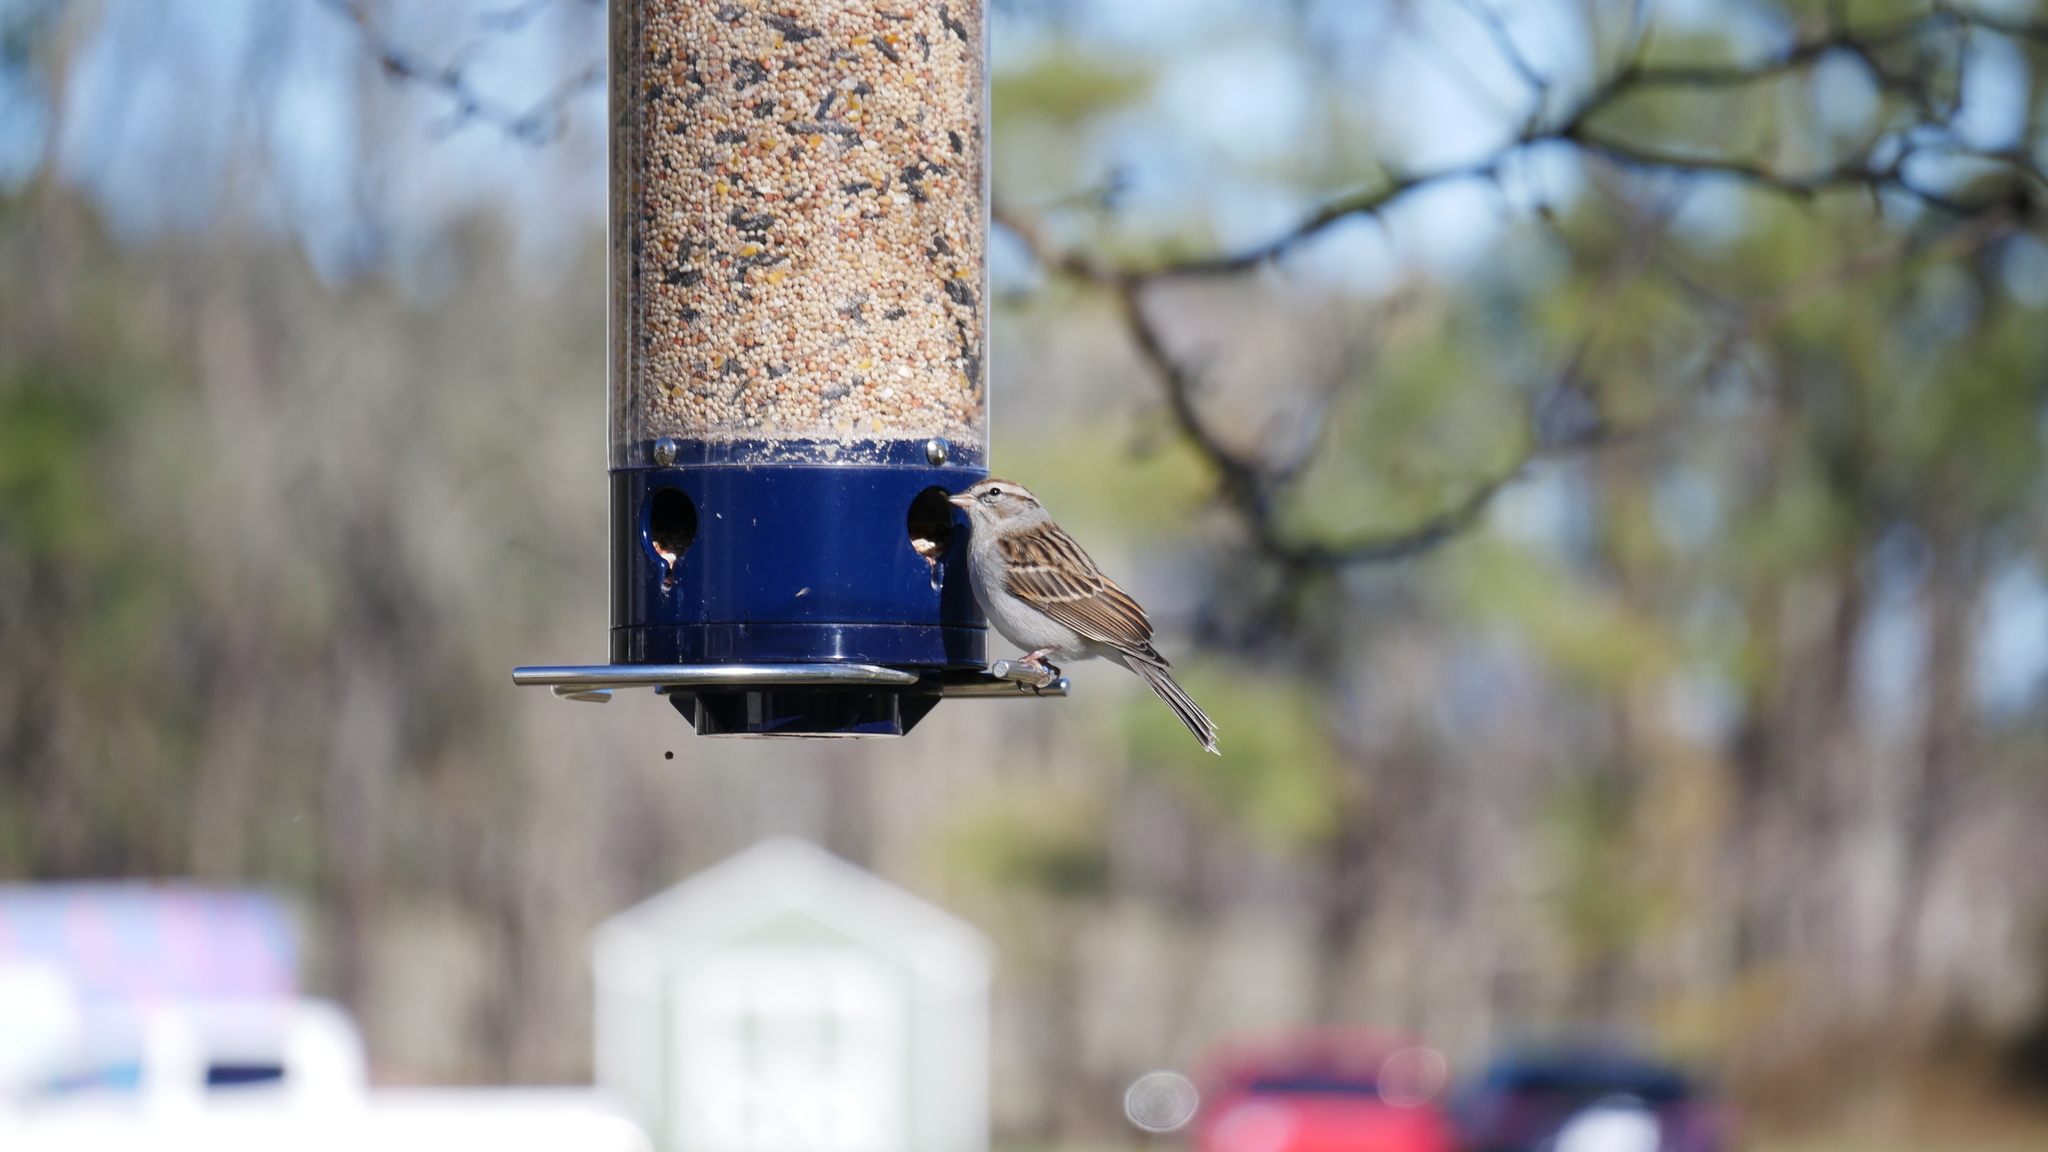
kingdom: Animalia
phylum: Chordata
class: Aves
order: Passeriformes
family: Passerellidae
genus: Spizella
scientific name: Spizella passerina
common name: Chipping sparrow
